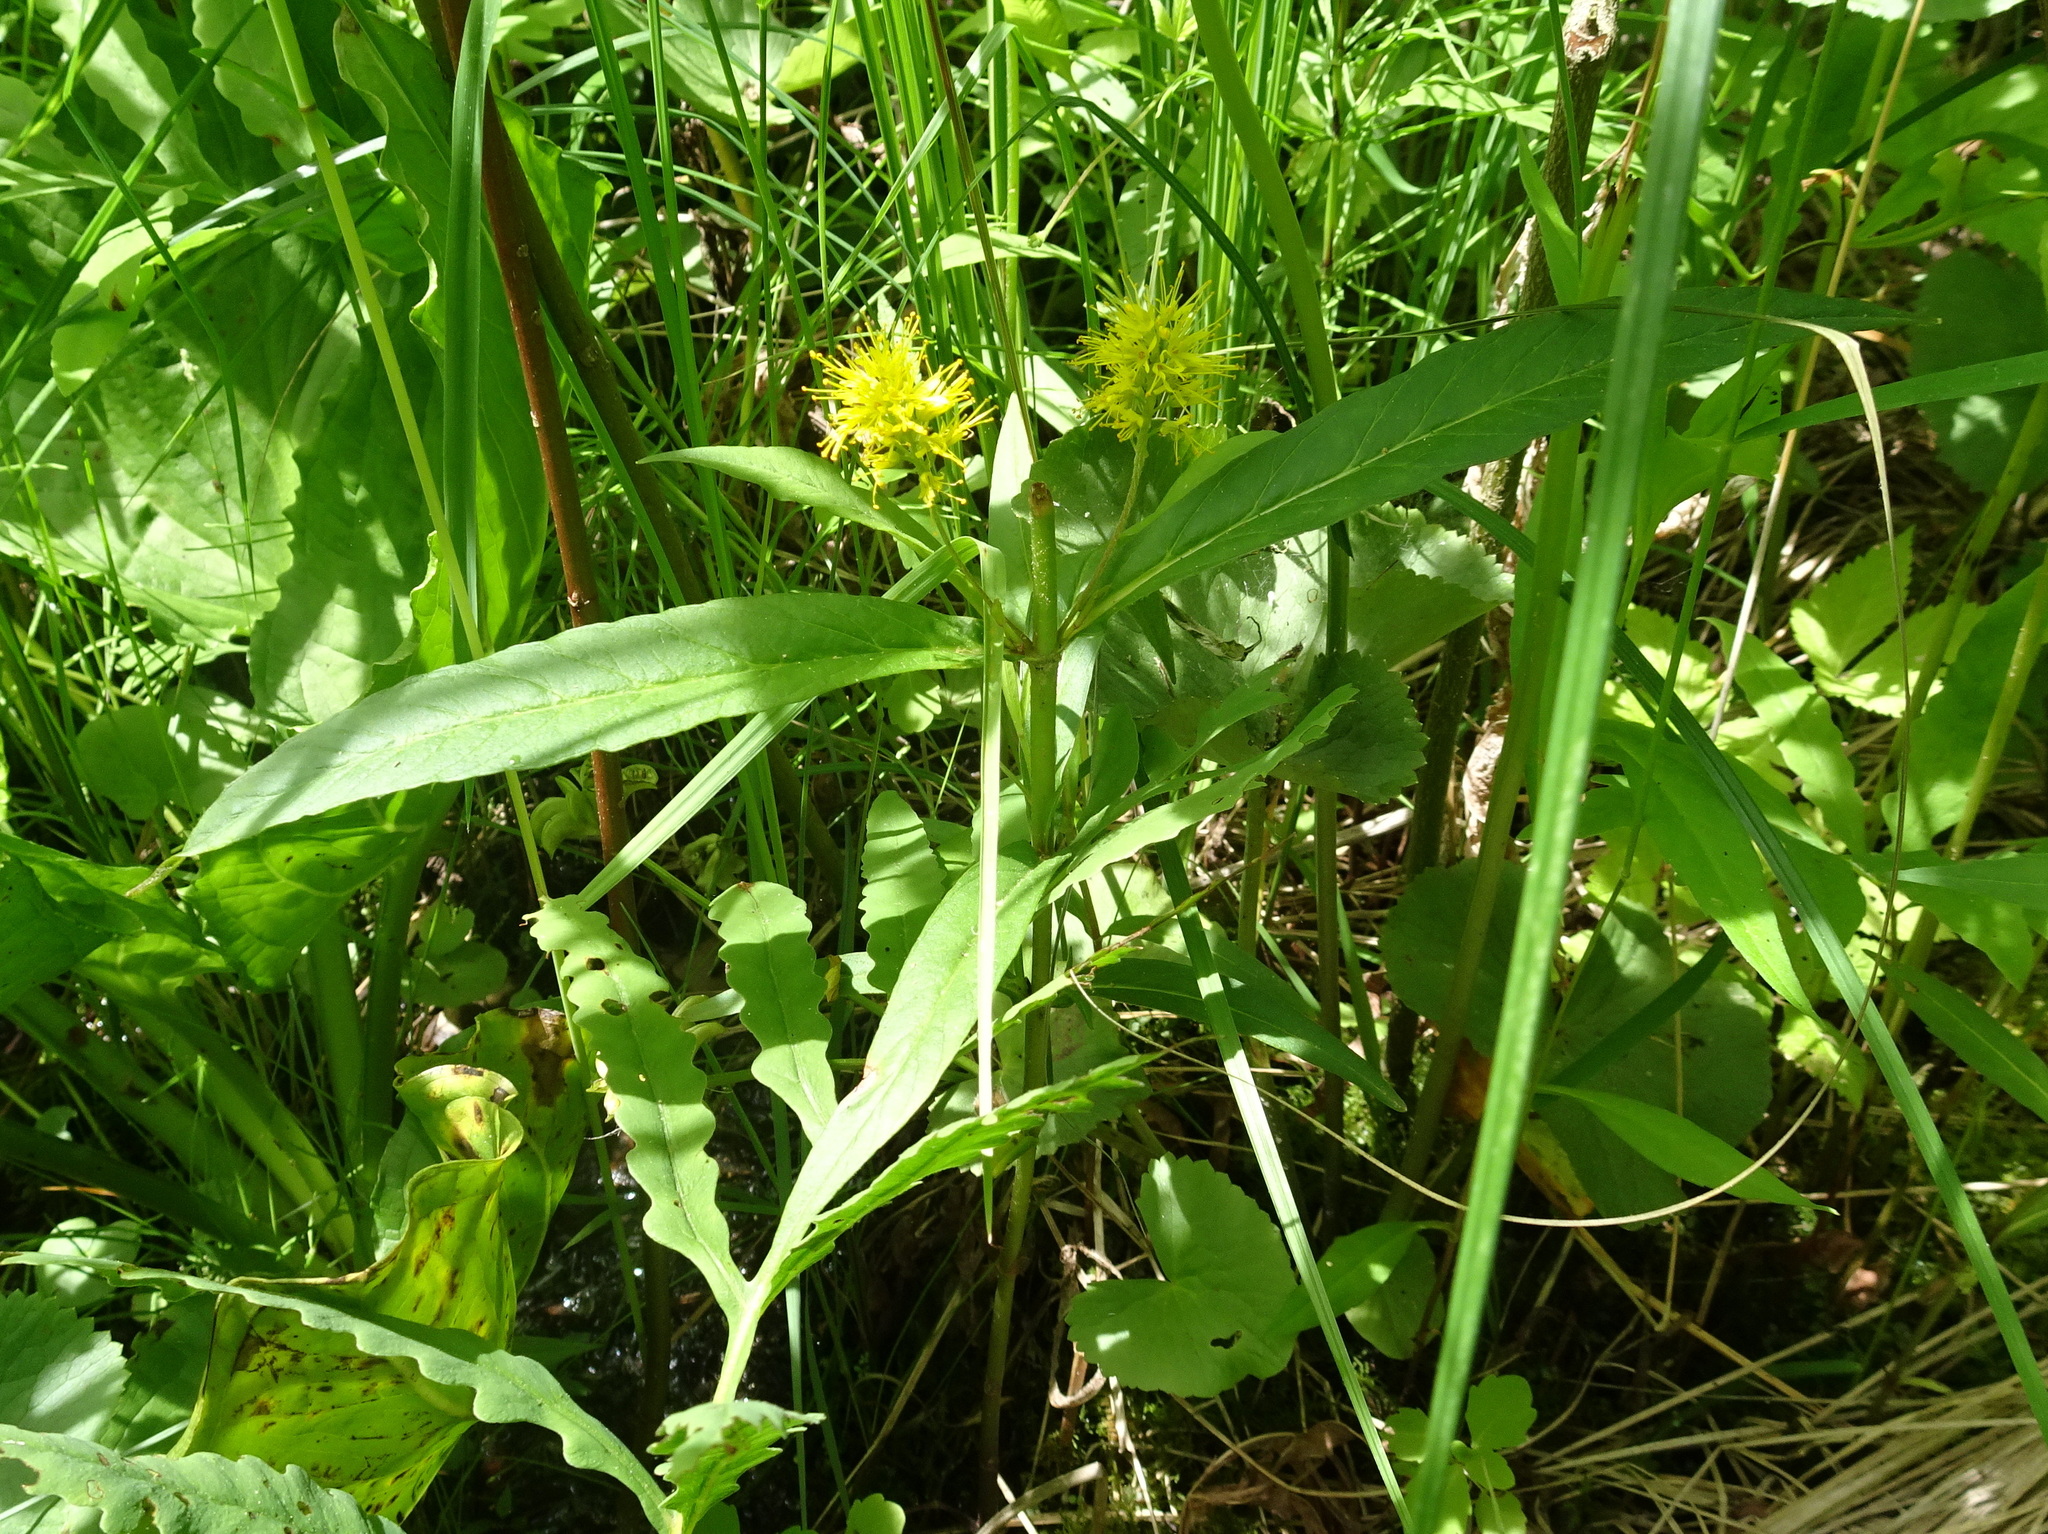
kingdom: Plantae
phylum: Tracheophyta
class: Magnoliopsida
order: Ericales
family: Primulaceae
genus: Lysimachia
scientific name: Lysimachia thyrsiflora
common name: Tufted loosestrife
